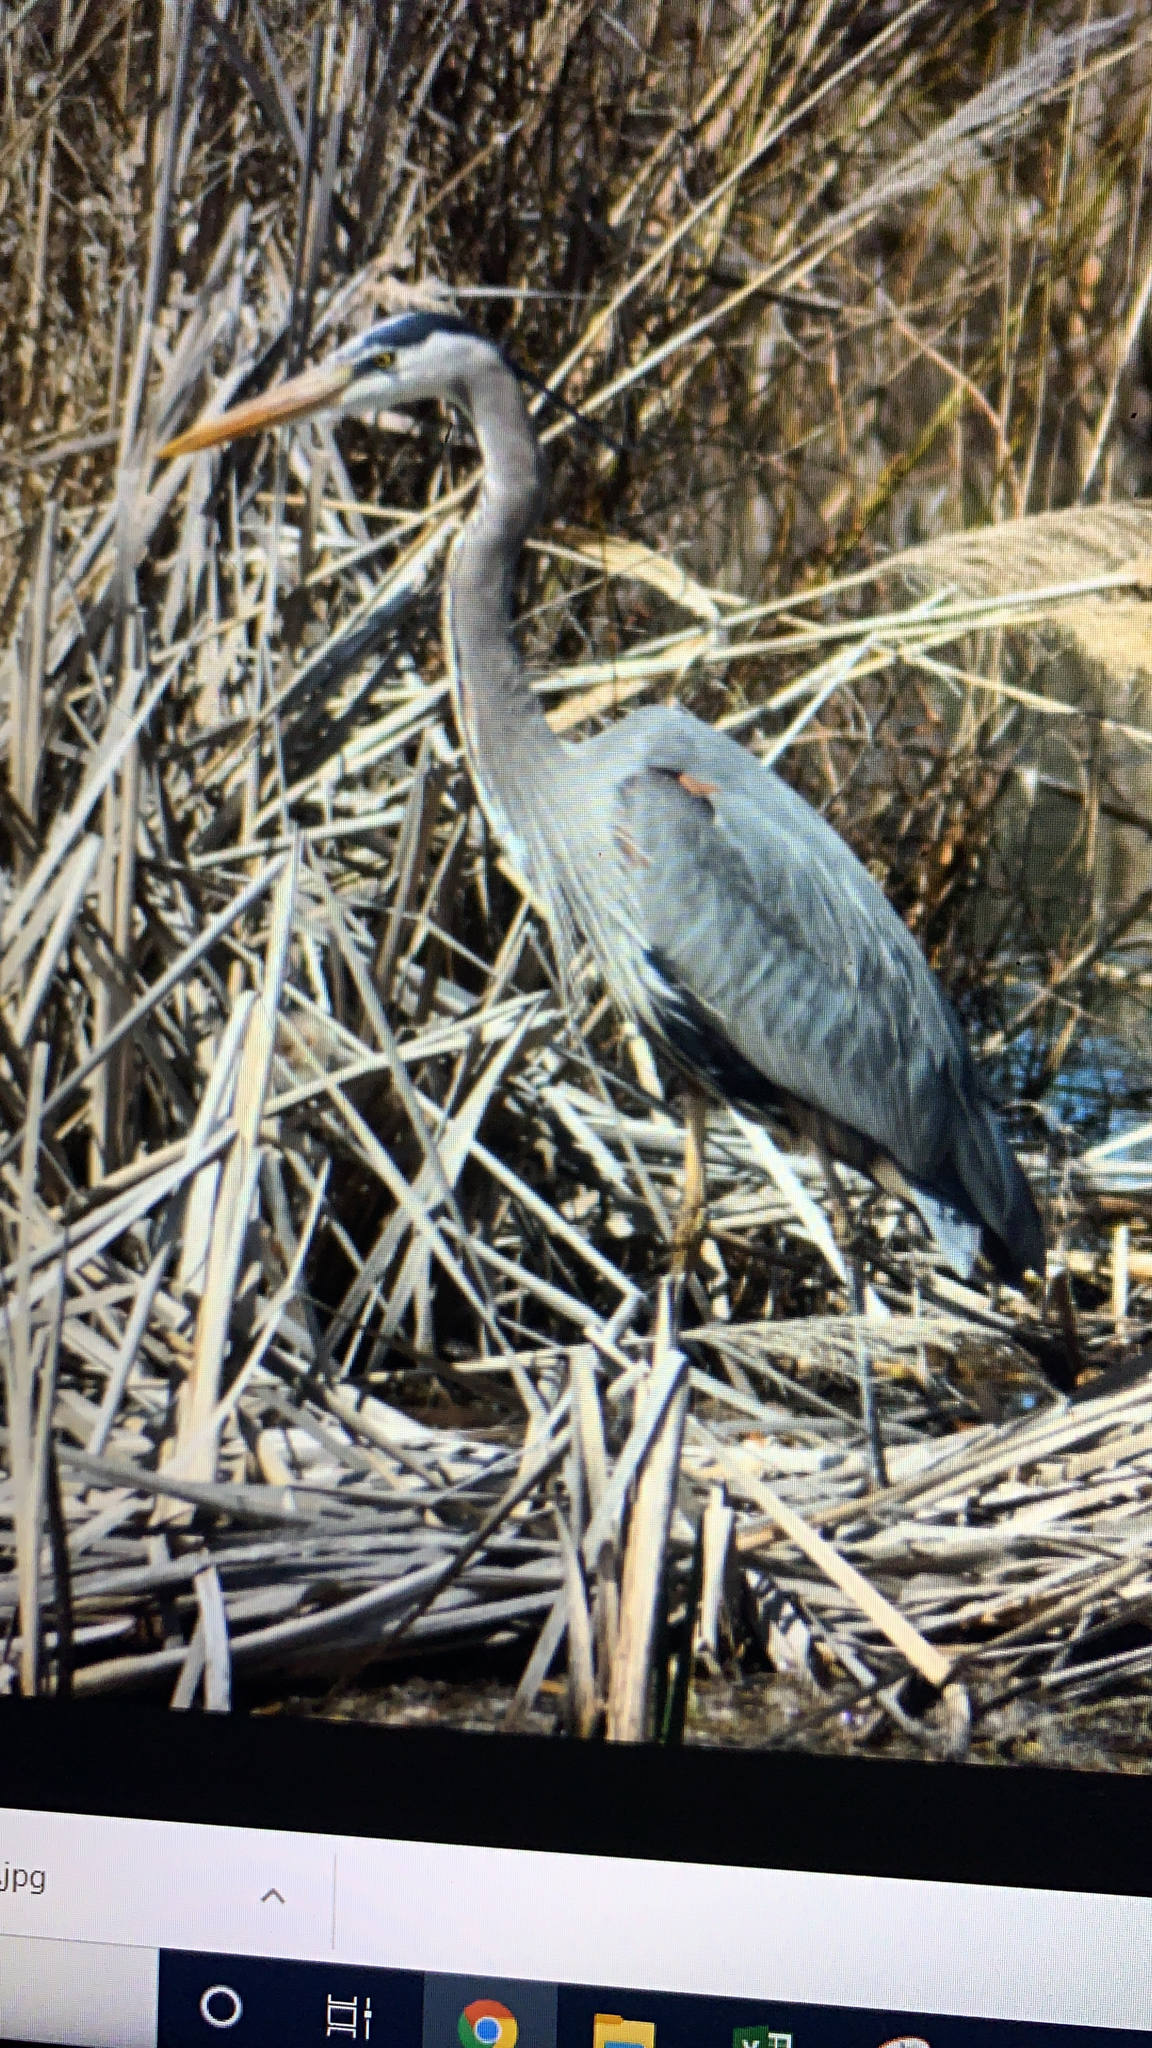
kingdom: Animalia
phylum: Chordata
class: Aves
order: Pelecaniformes
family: Ardeidae
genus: Ardea
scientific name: Ardea herodias
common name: Great blue heron
